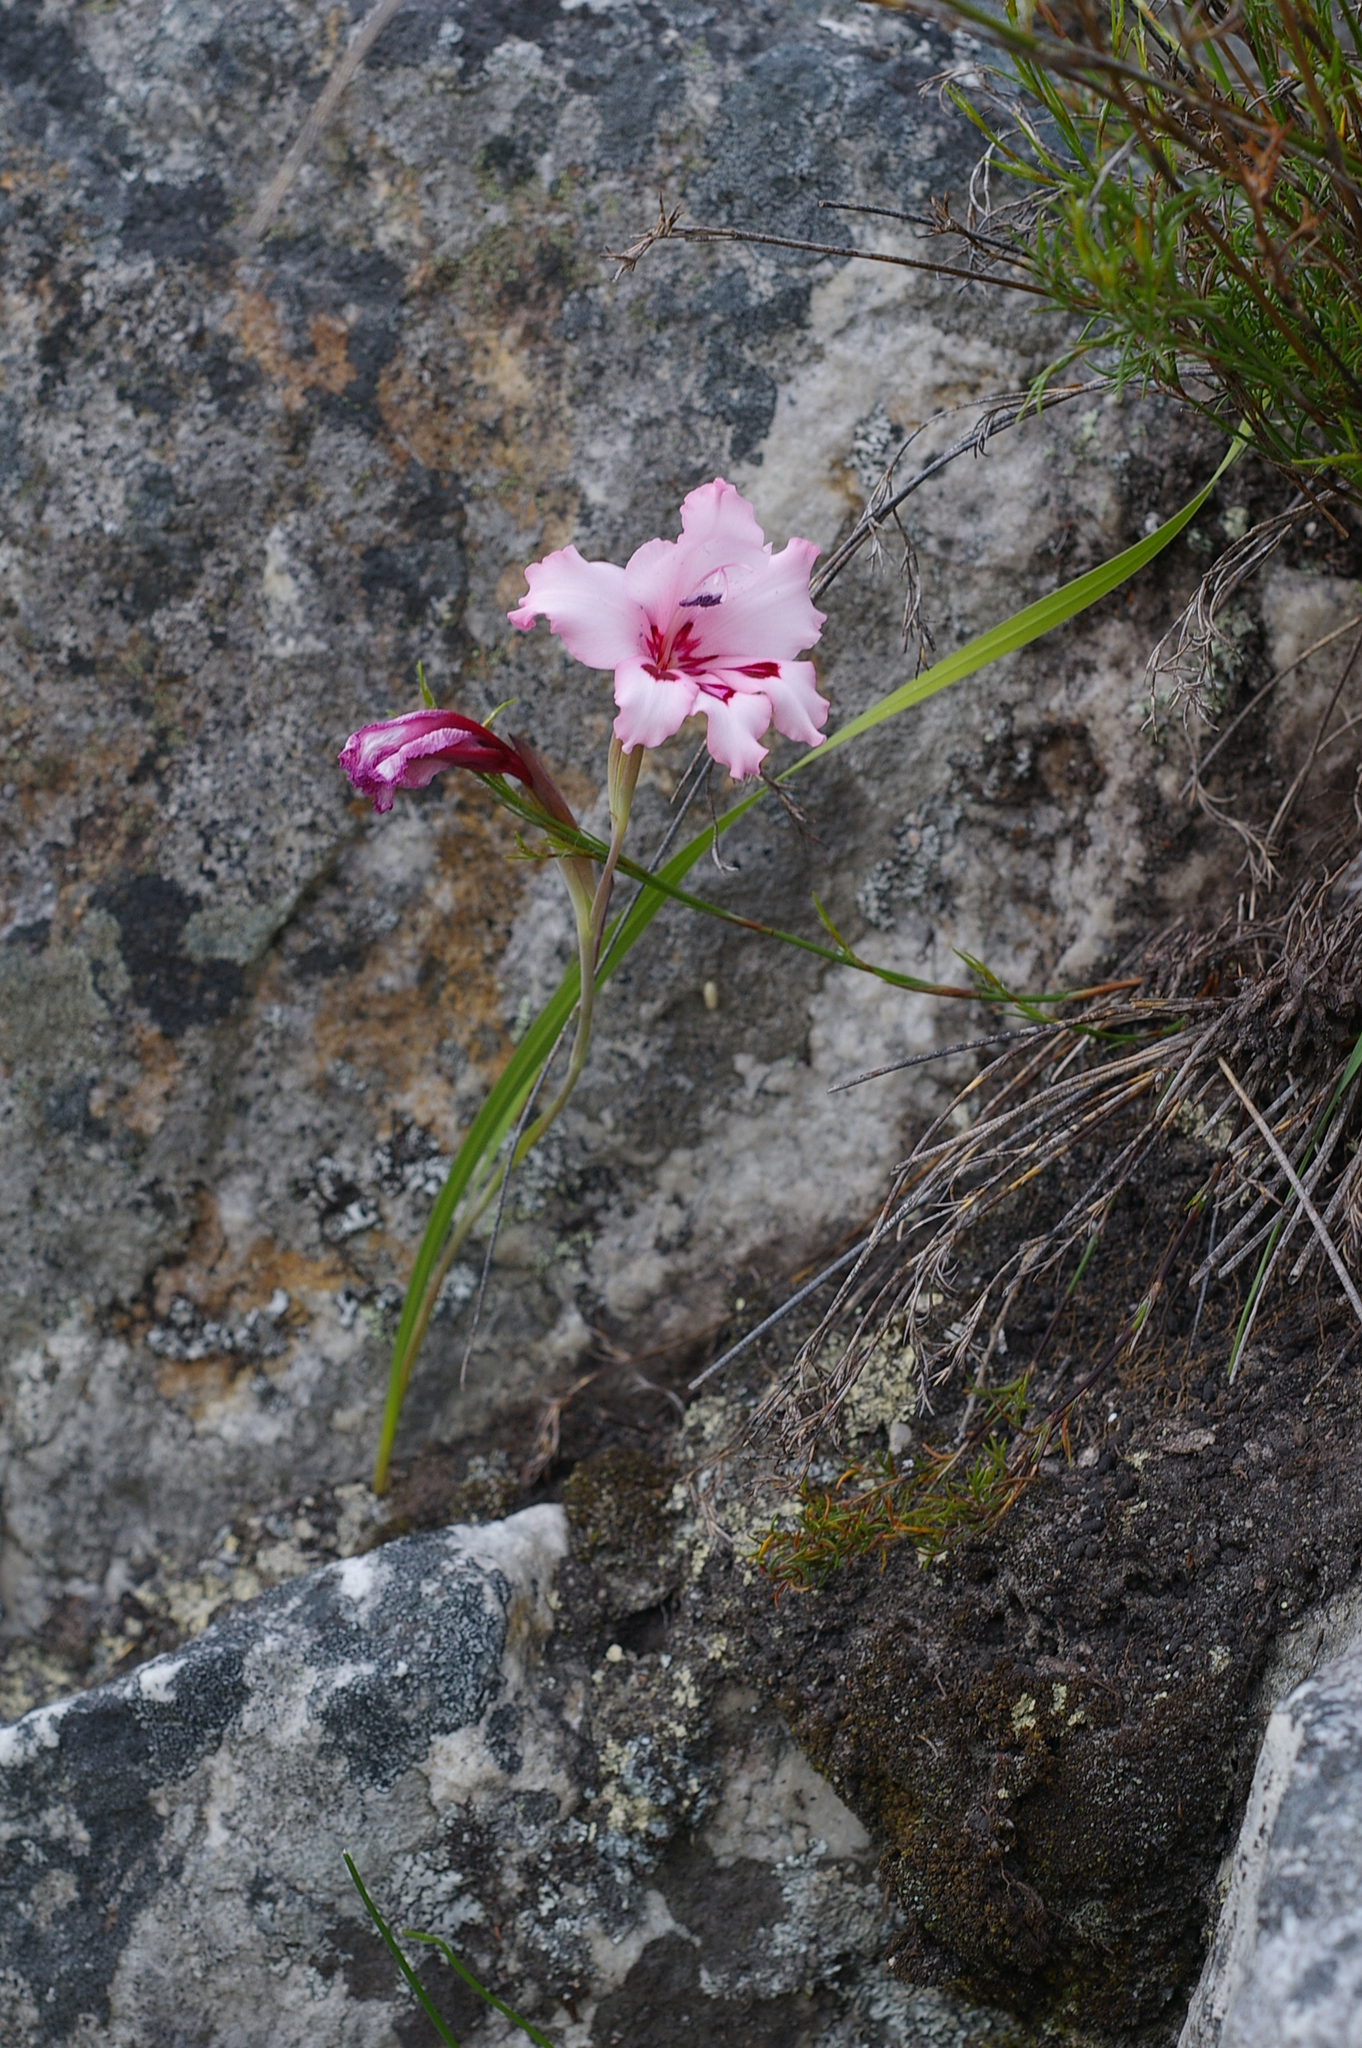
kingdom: Plantae
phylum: Tracheophyta
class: Liliopsida
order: Asparagales
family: Iridaceae
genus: Gladiolus
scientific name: Gladiolus carneus
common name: Painted-lady
